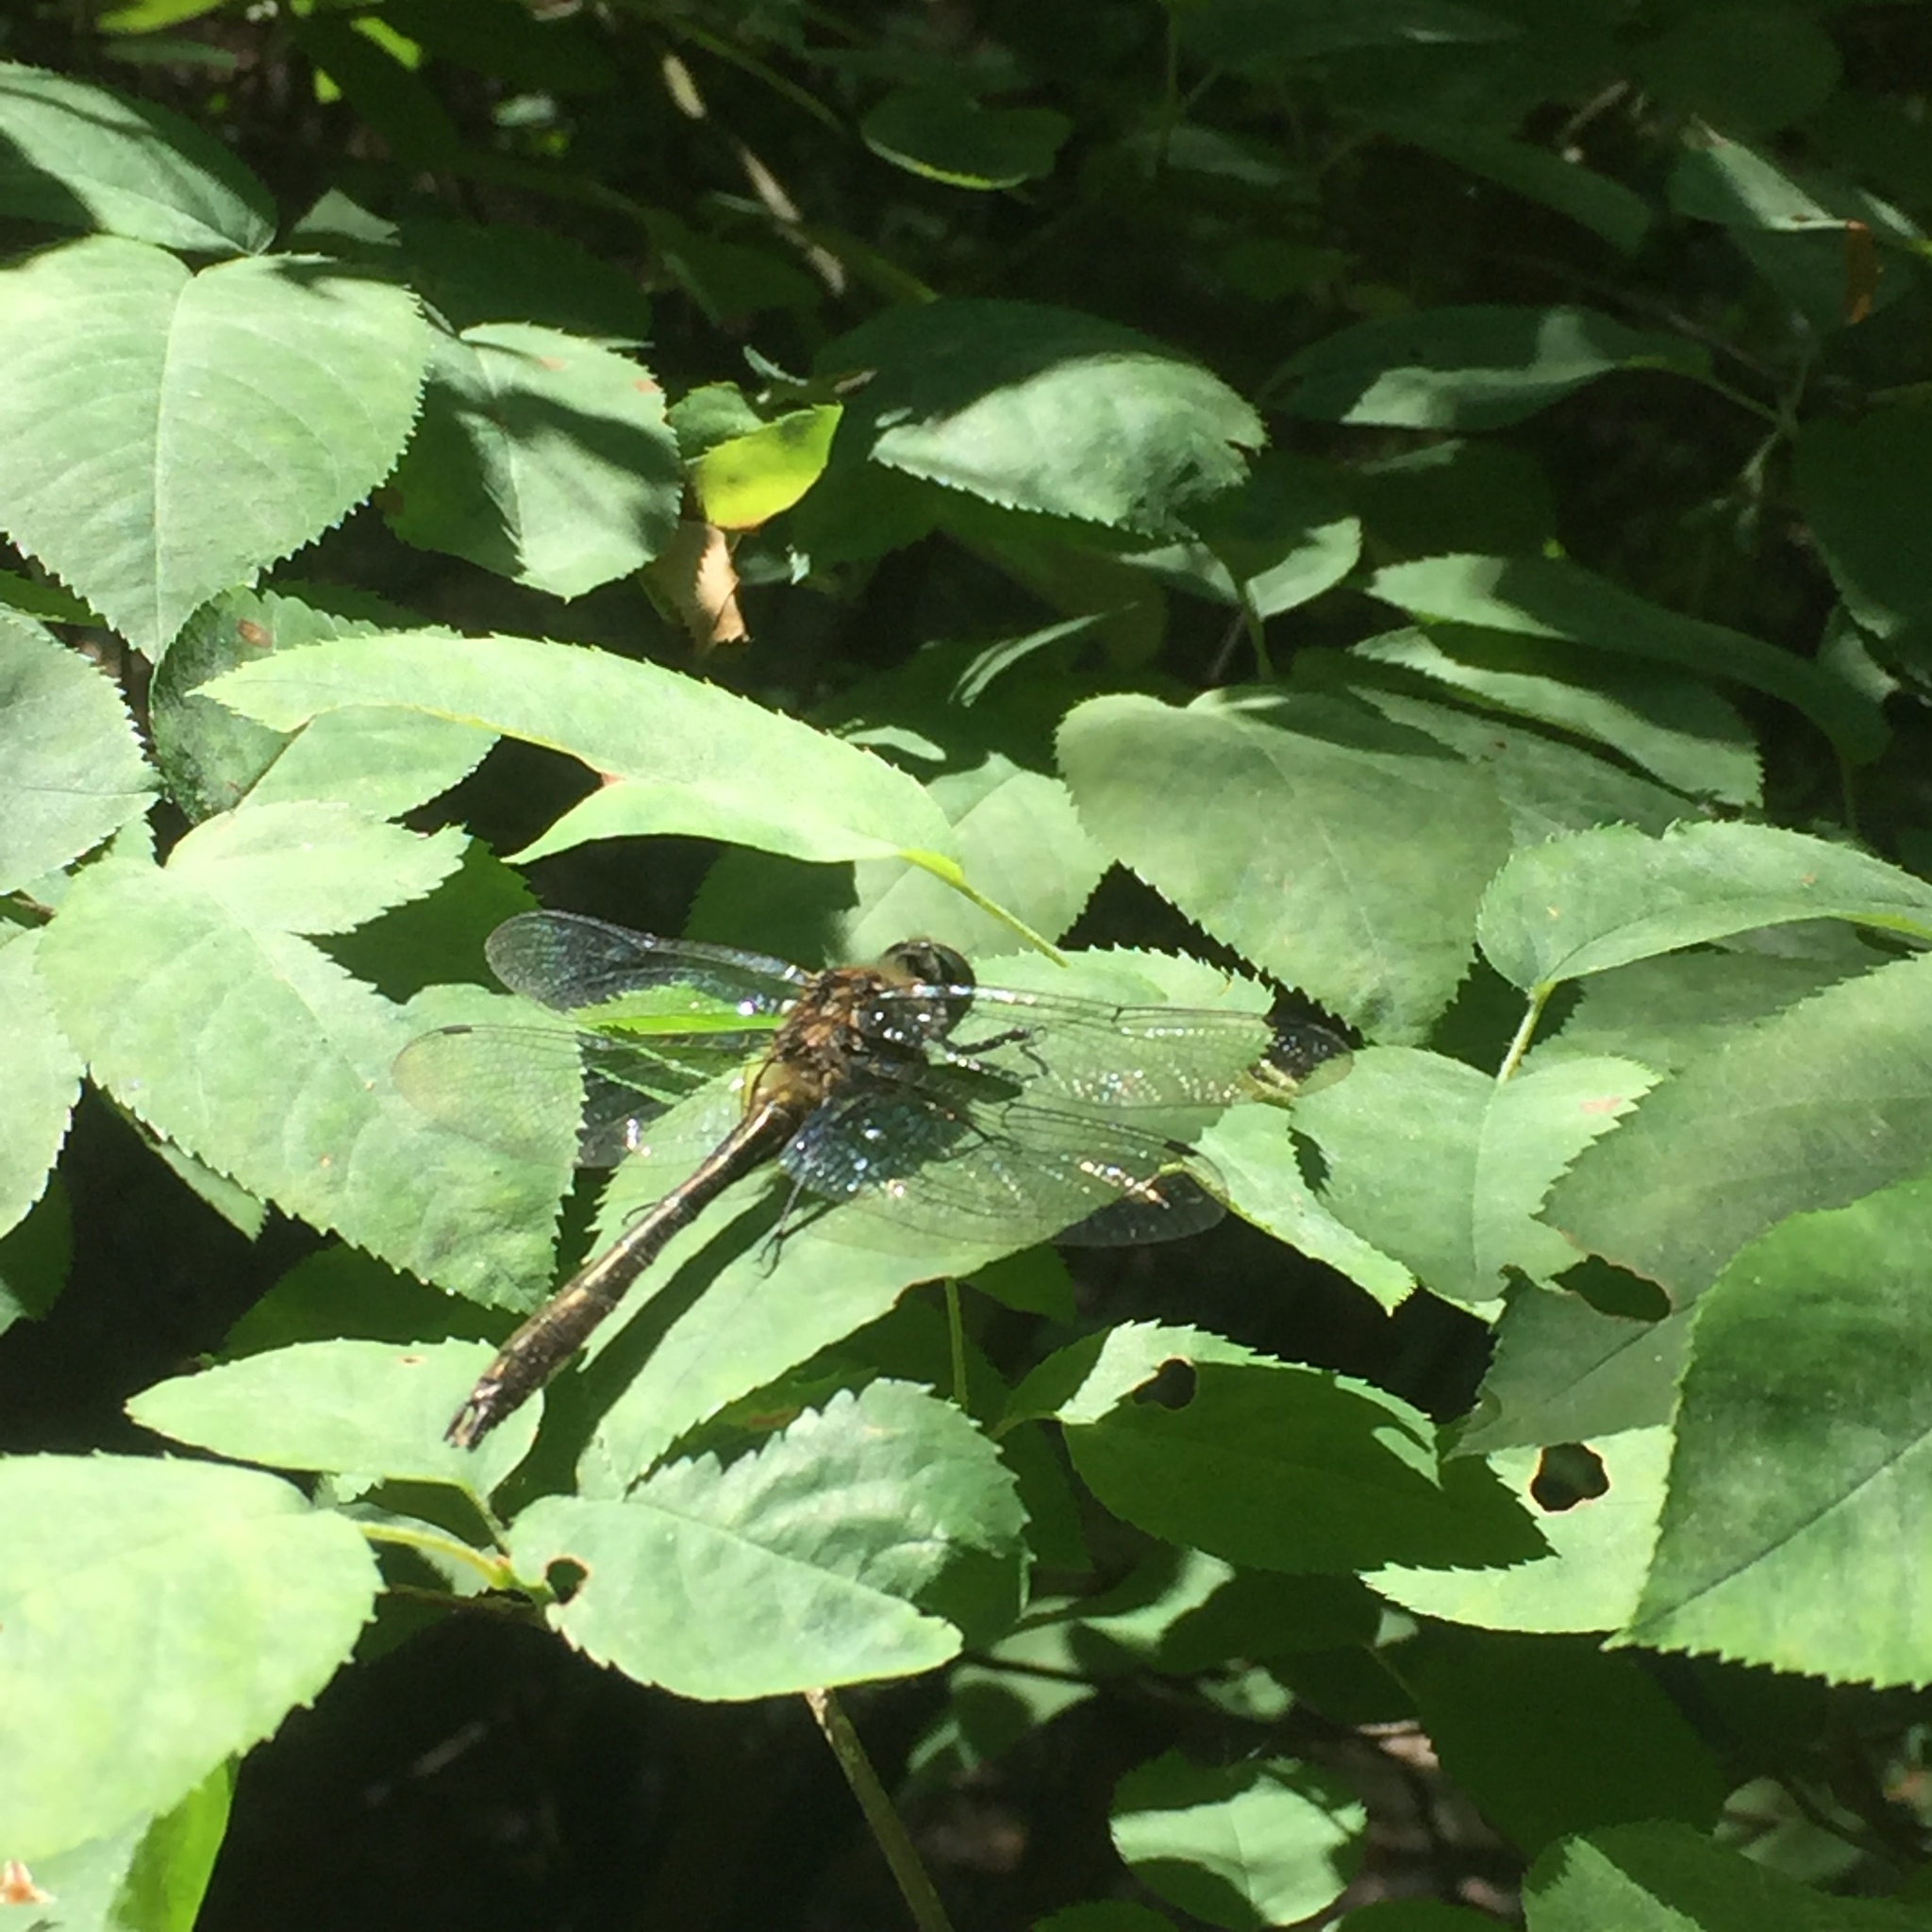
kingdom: Animalia
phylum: Arthropoda
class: Insecta
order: Odonata
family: Corduliidae
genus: Cordulia
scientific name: Cordulia aenea
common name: Downy emerald
